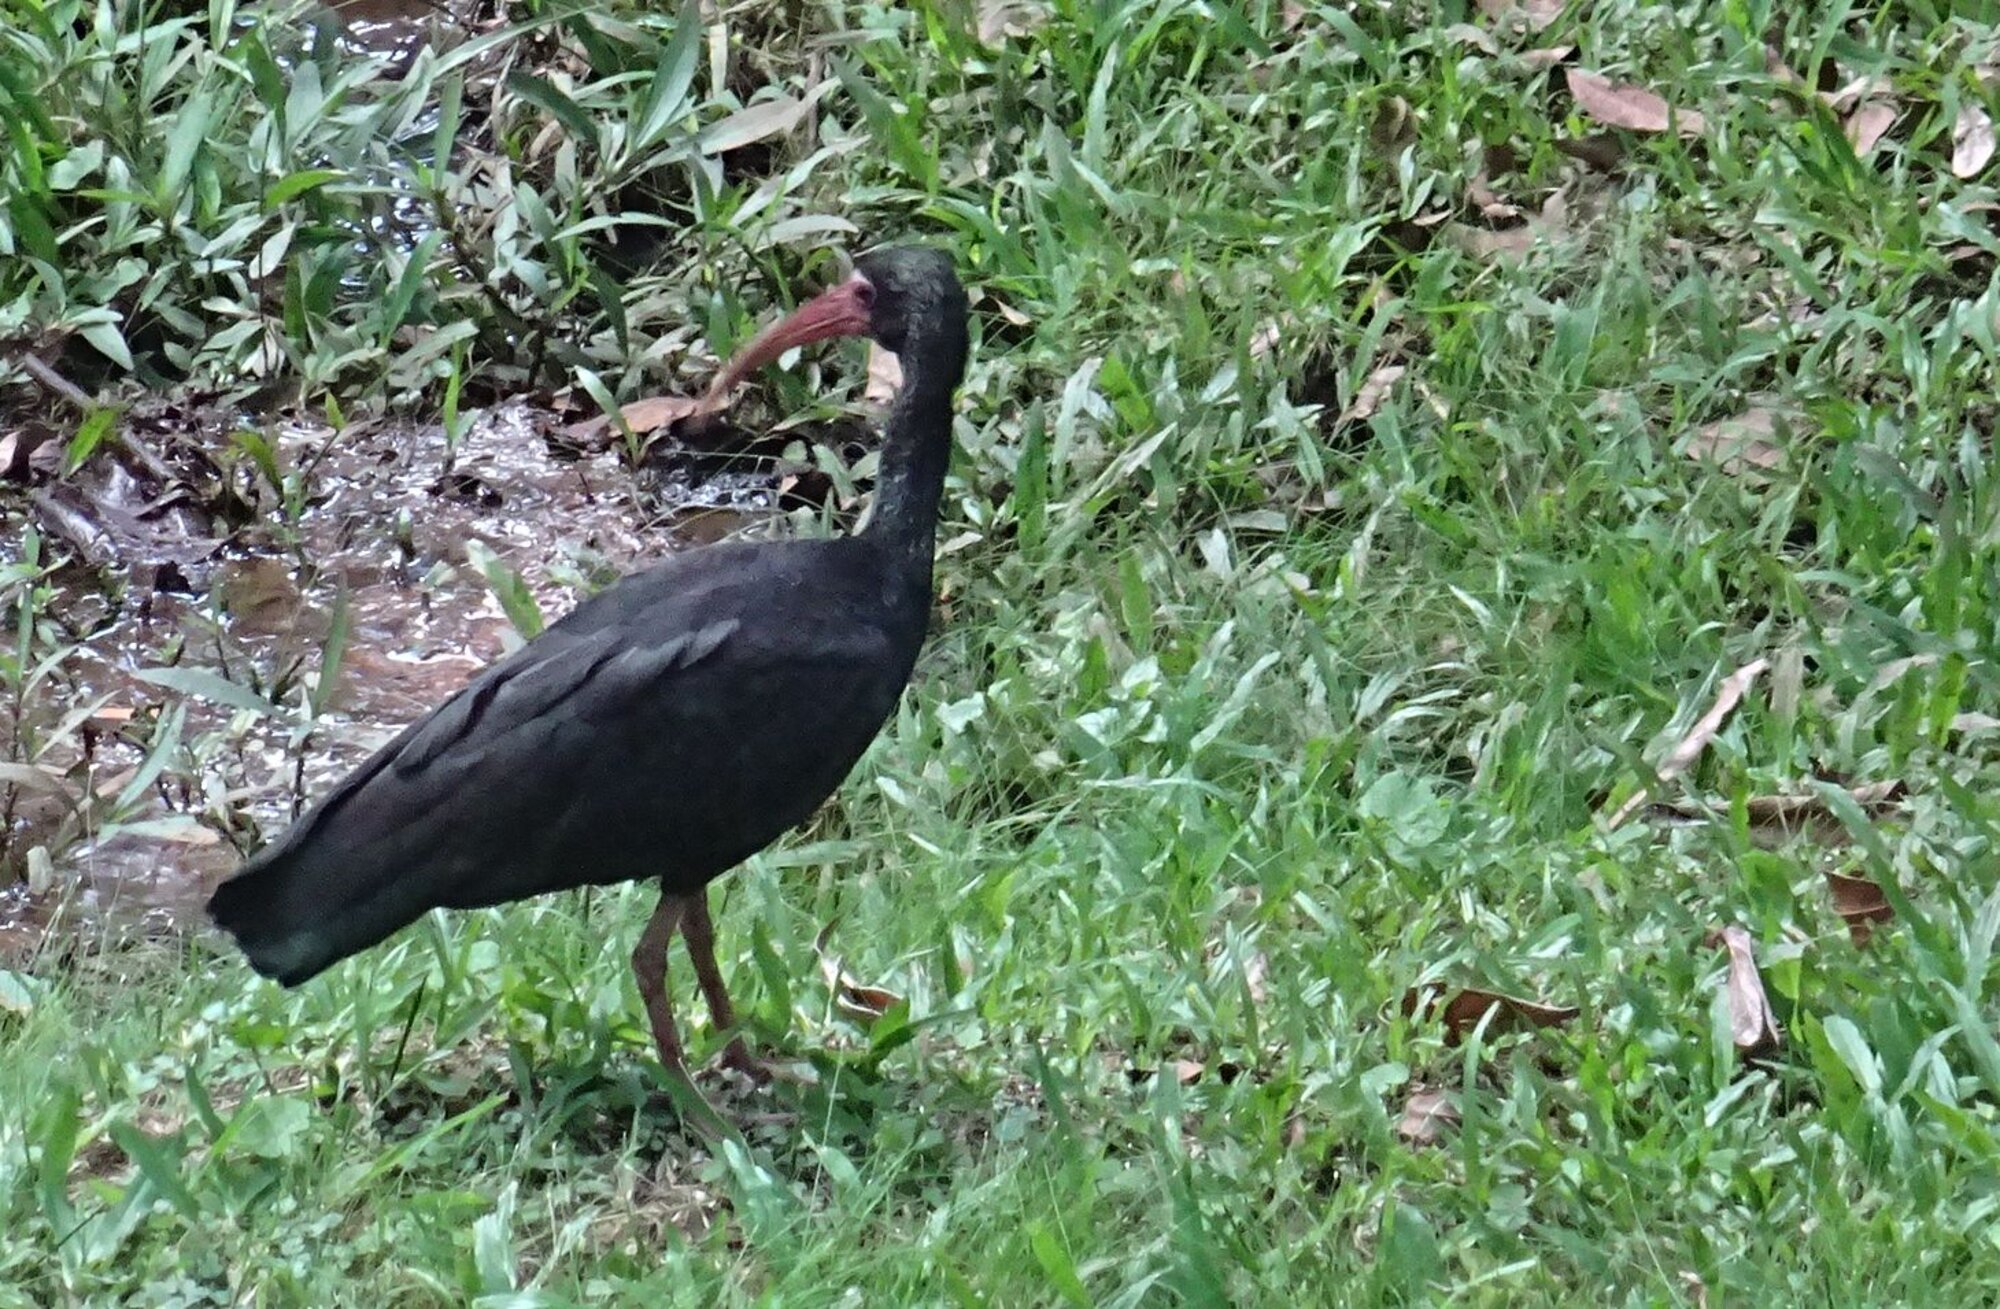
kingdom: Animalia
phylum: Chordata
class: Aves
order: Pelecaniformes
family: Threskiornithidae
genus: Phimosus
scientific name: Phimosus infuscatus
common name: Bare-faced ibis
